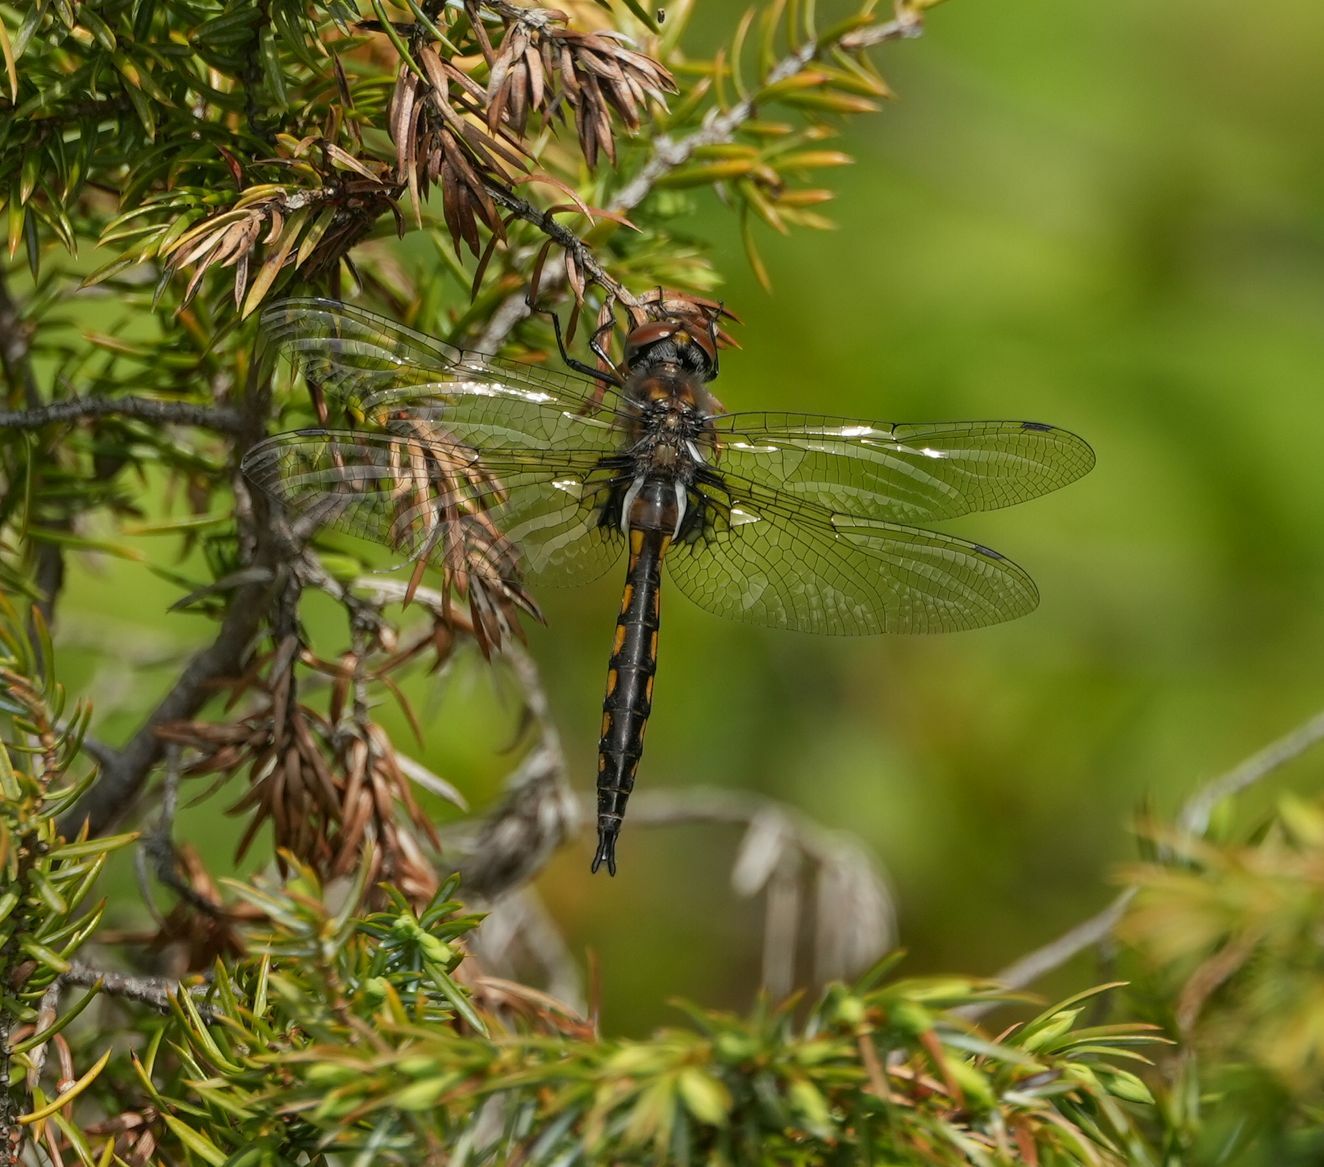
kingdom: Animalia
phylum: Arthropoda
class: Insecta
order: Odonata
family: Corduliidae
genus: Epitheca
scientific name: Epitheca spinigera
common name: Spiny baskettail
